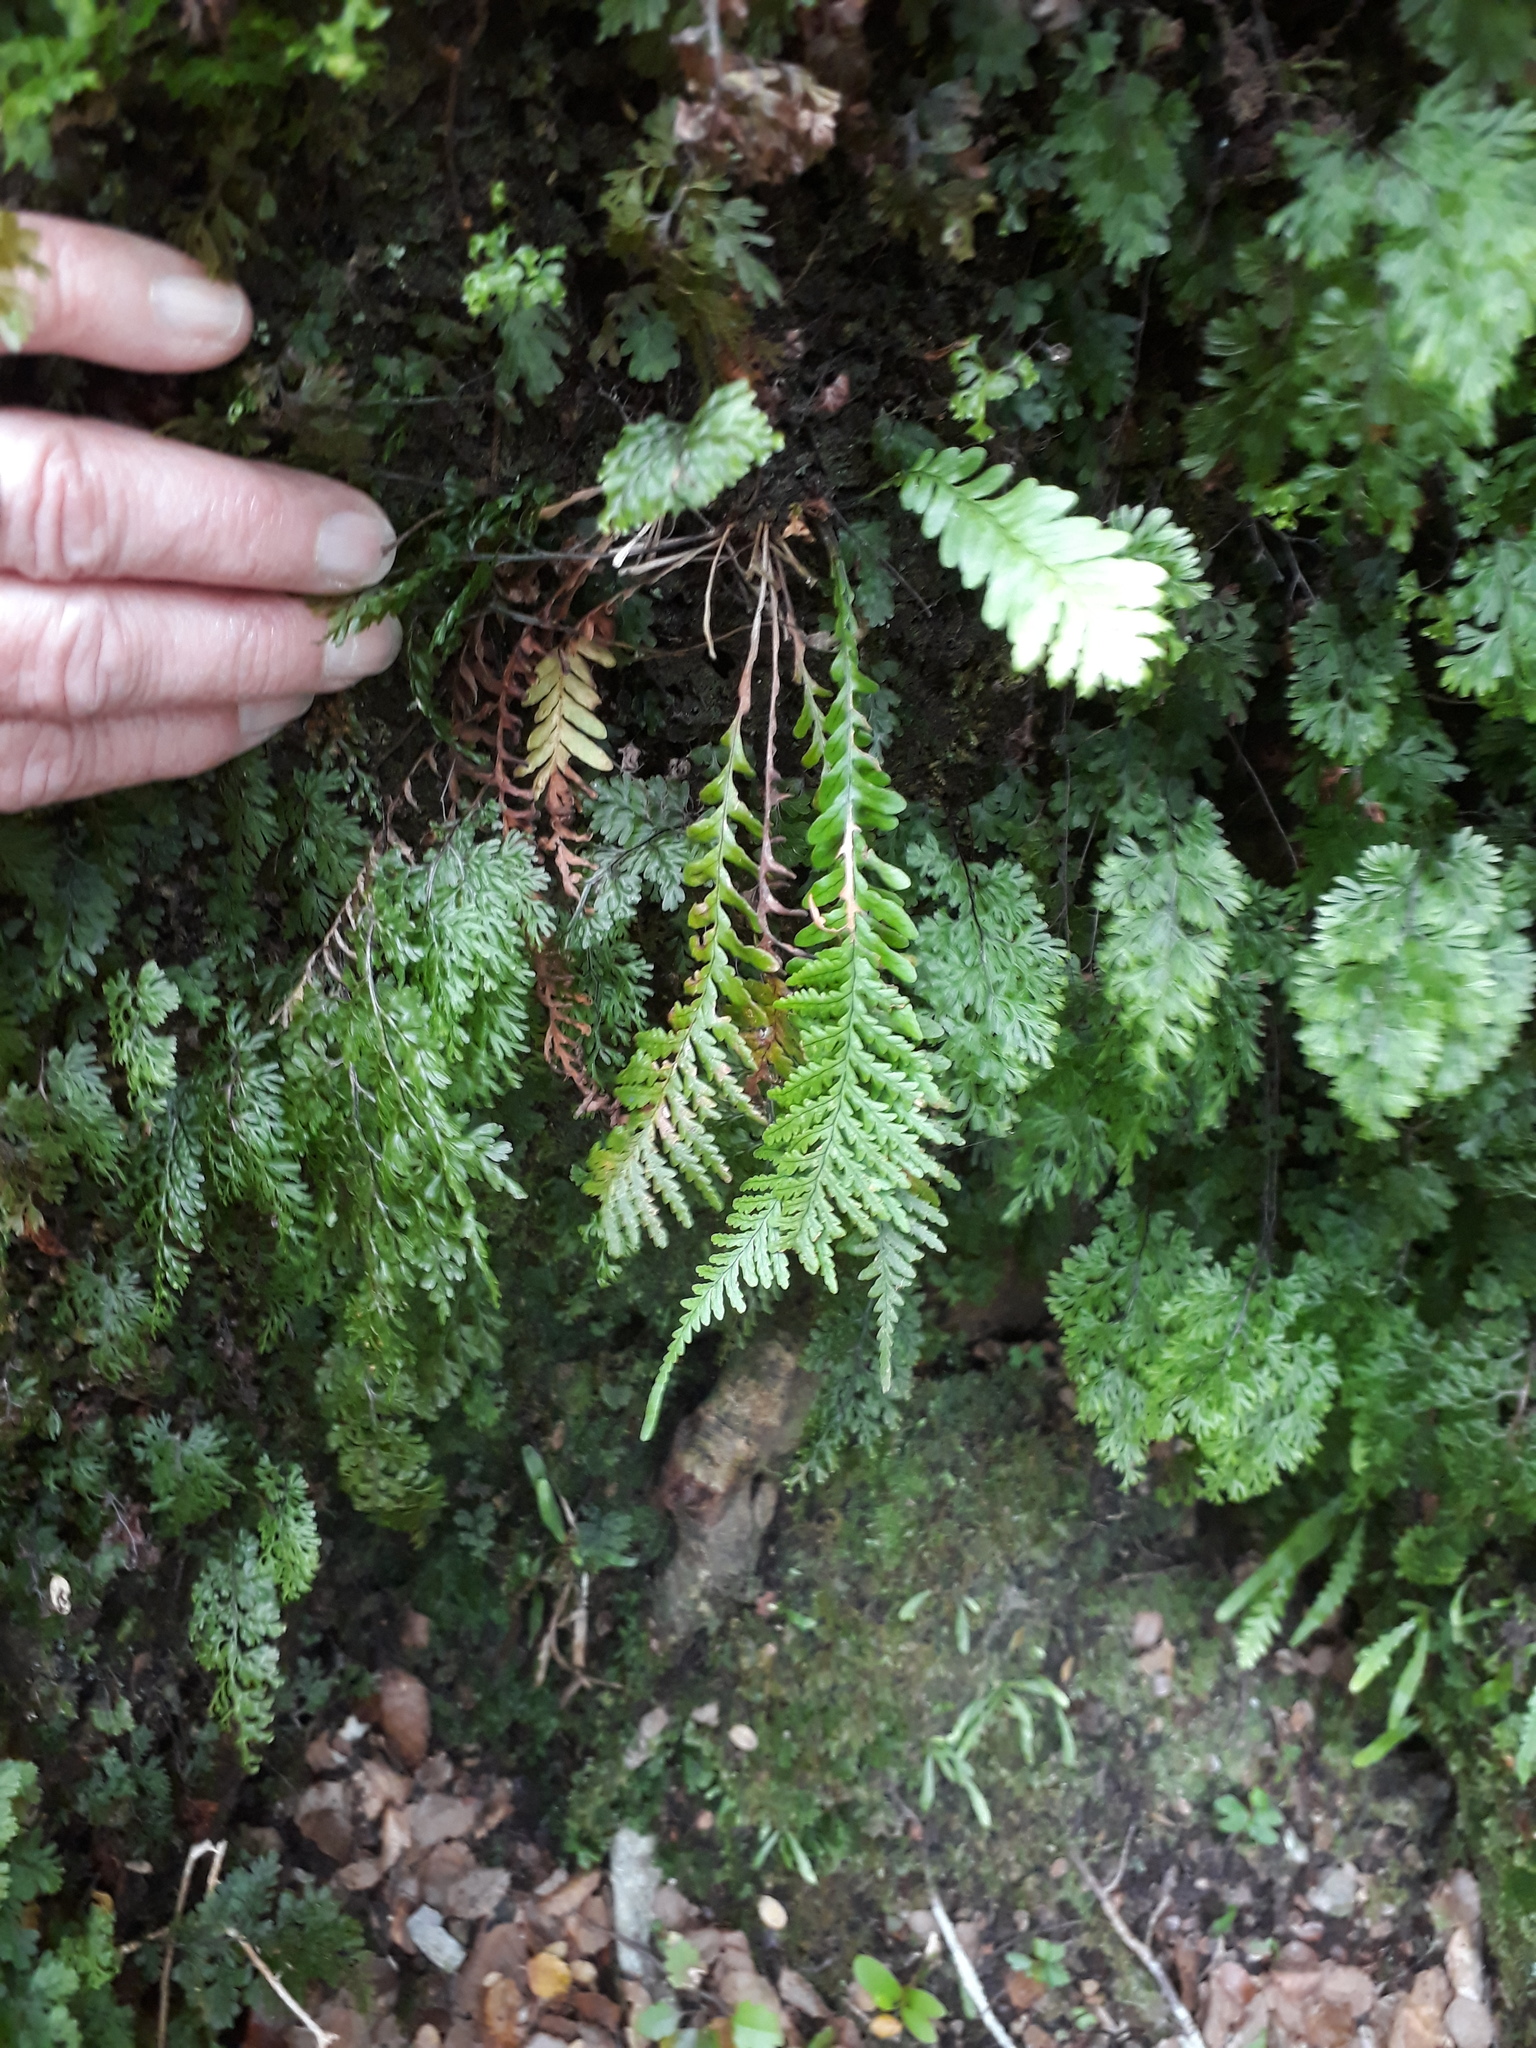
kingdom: Plantae
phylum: Tracheophyta
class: Polypodiopsida
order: Polypodiales
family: Polypodiaceae
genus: Notogrammitis
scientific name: Notogrammitis heterophylla
